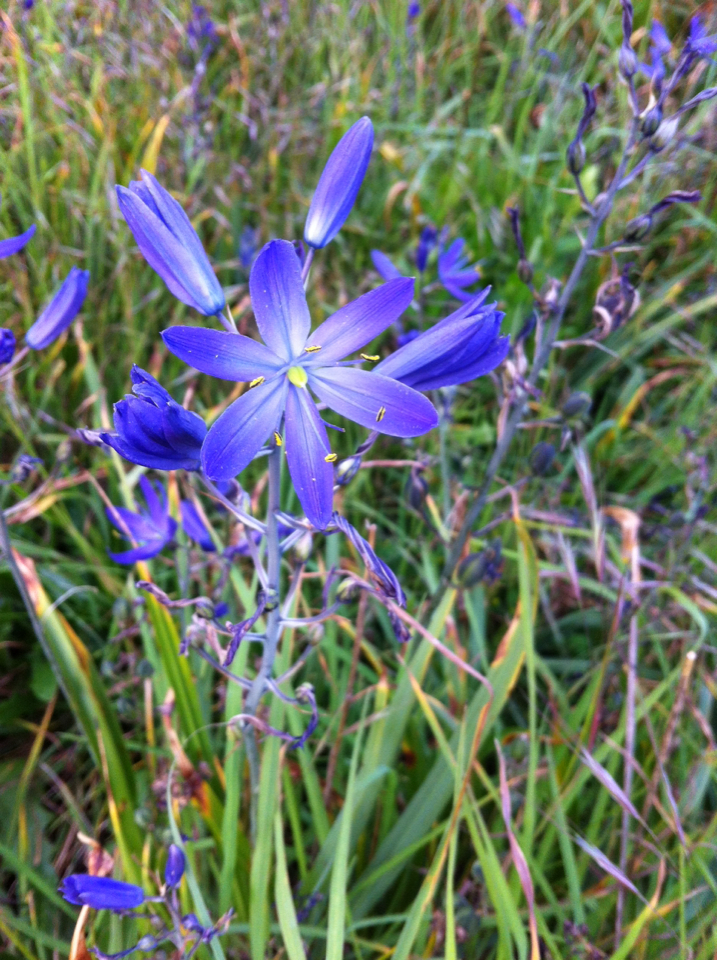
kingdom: Plantae
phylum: Tracheophyta
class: Liliopsida
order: Asparagales
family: Asparagaceae
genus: Camassia
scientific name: Camassia quamash
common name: Common camas
